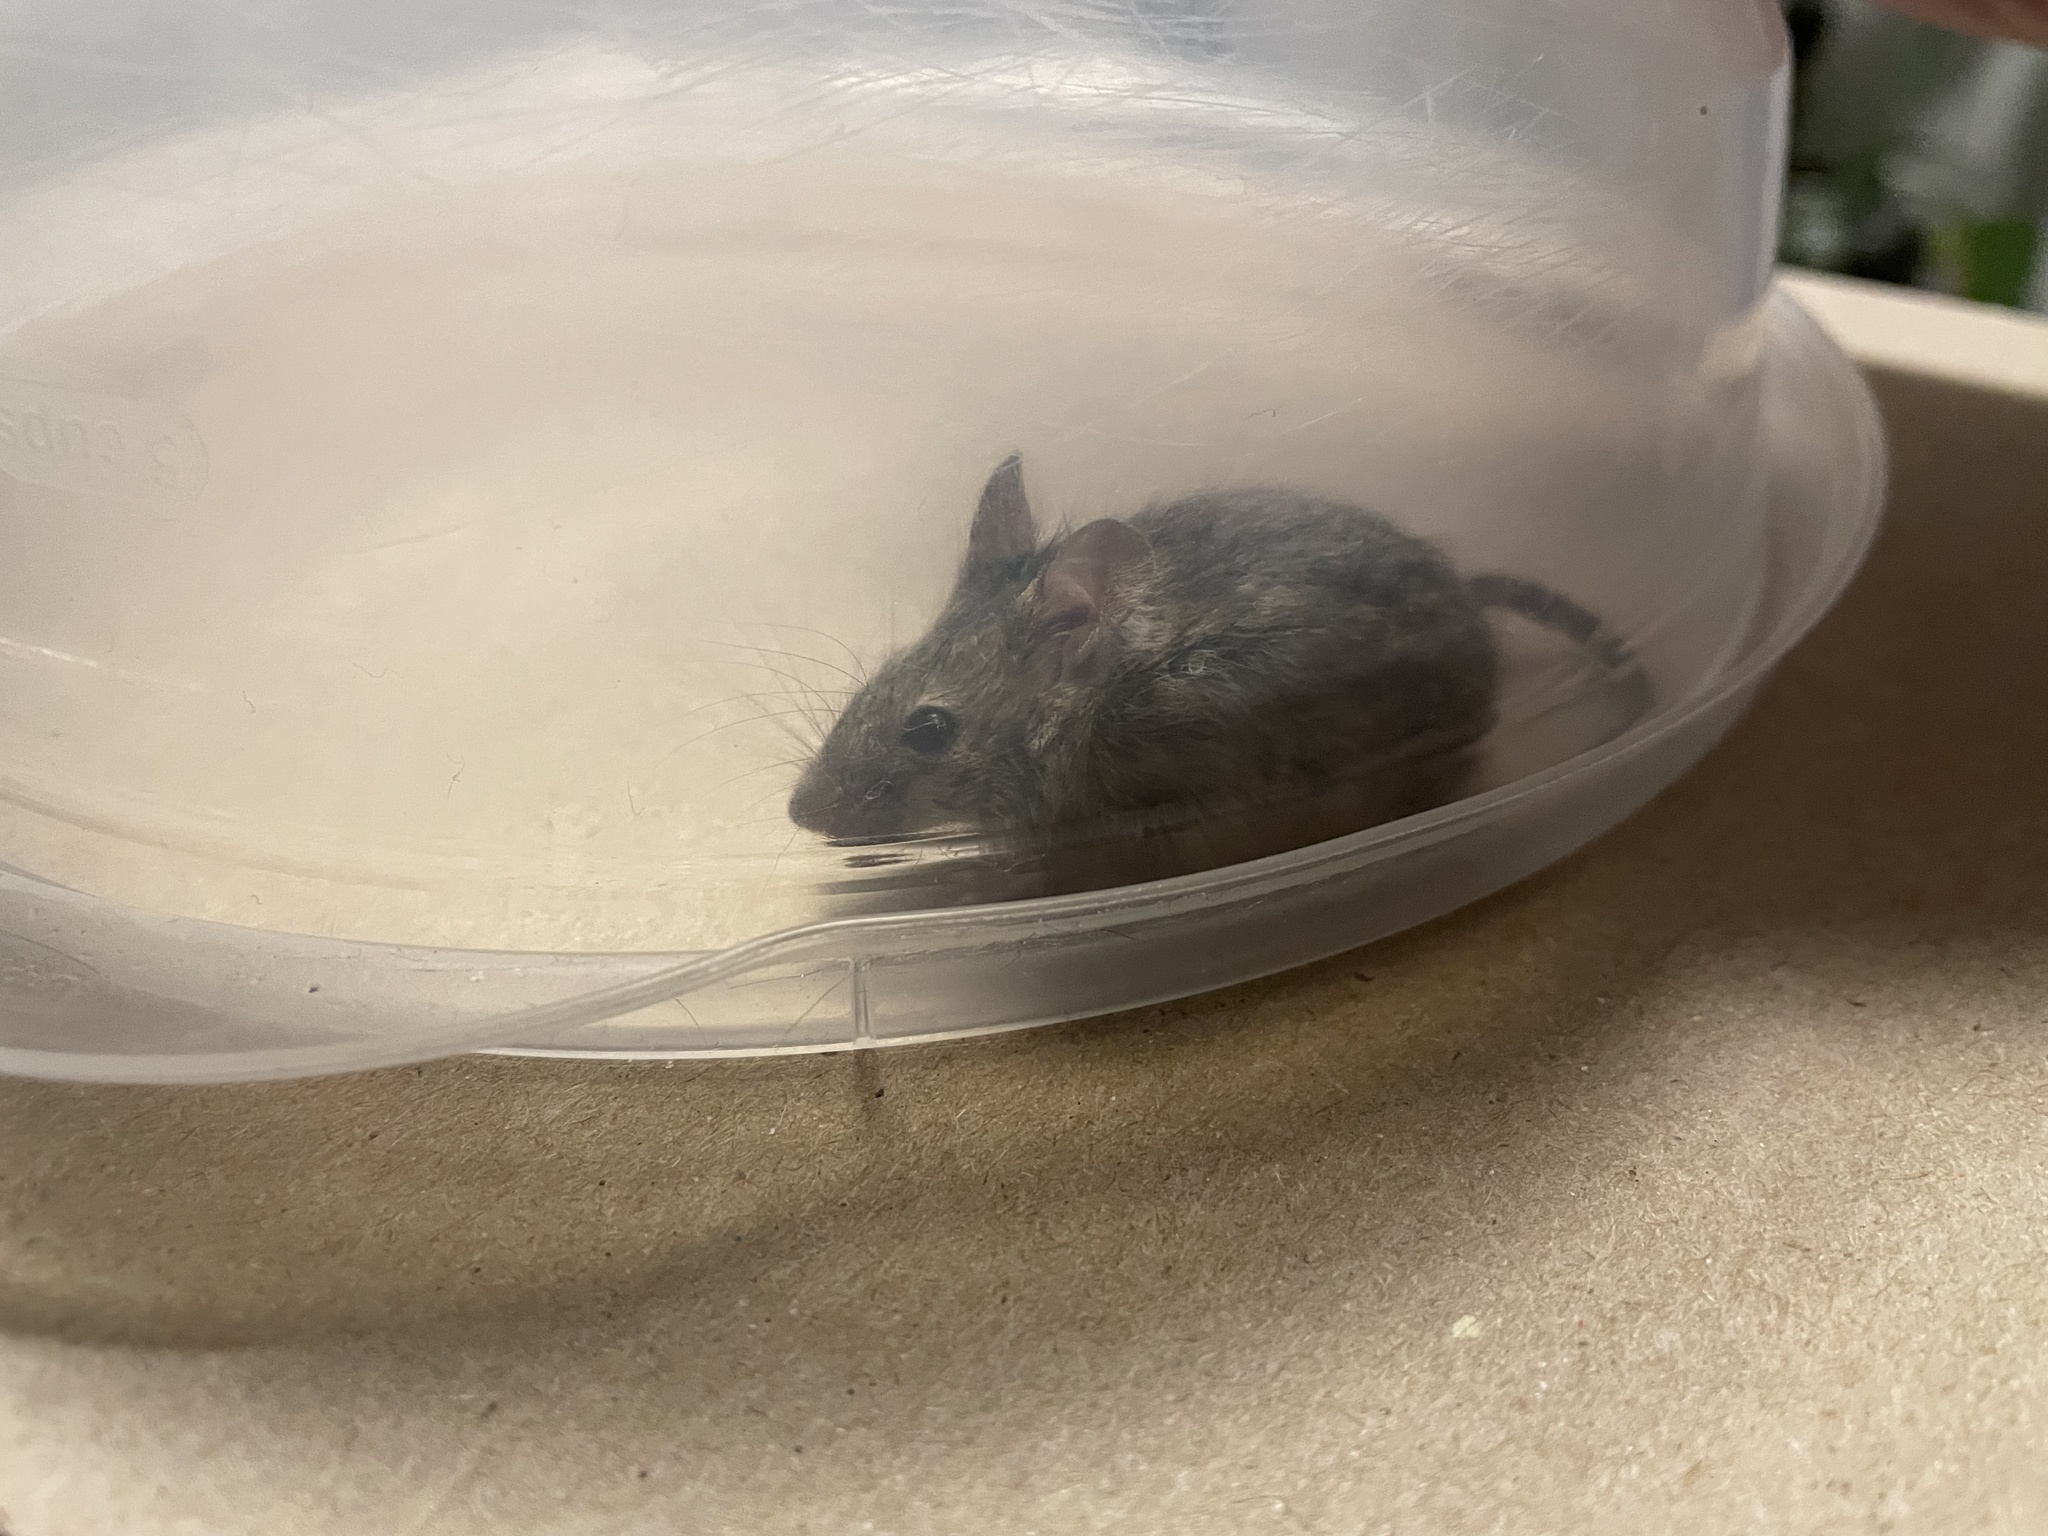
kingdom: Animalia
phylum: Chordata
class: Mammalia
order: Rodentia
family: Muridae
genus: Mus
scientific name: Mus musculus
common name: House mouse
